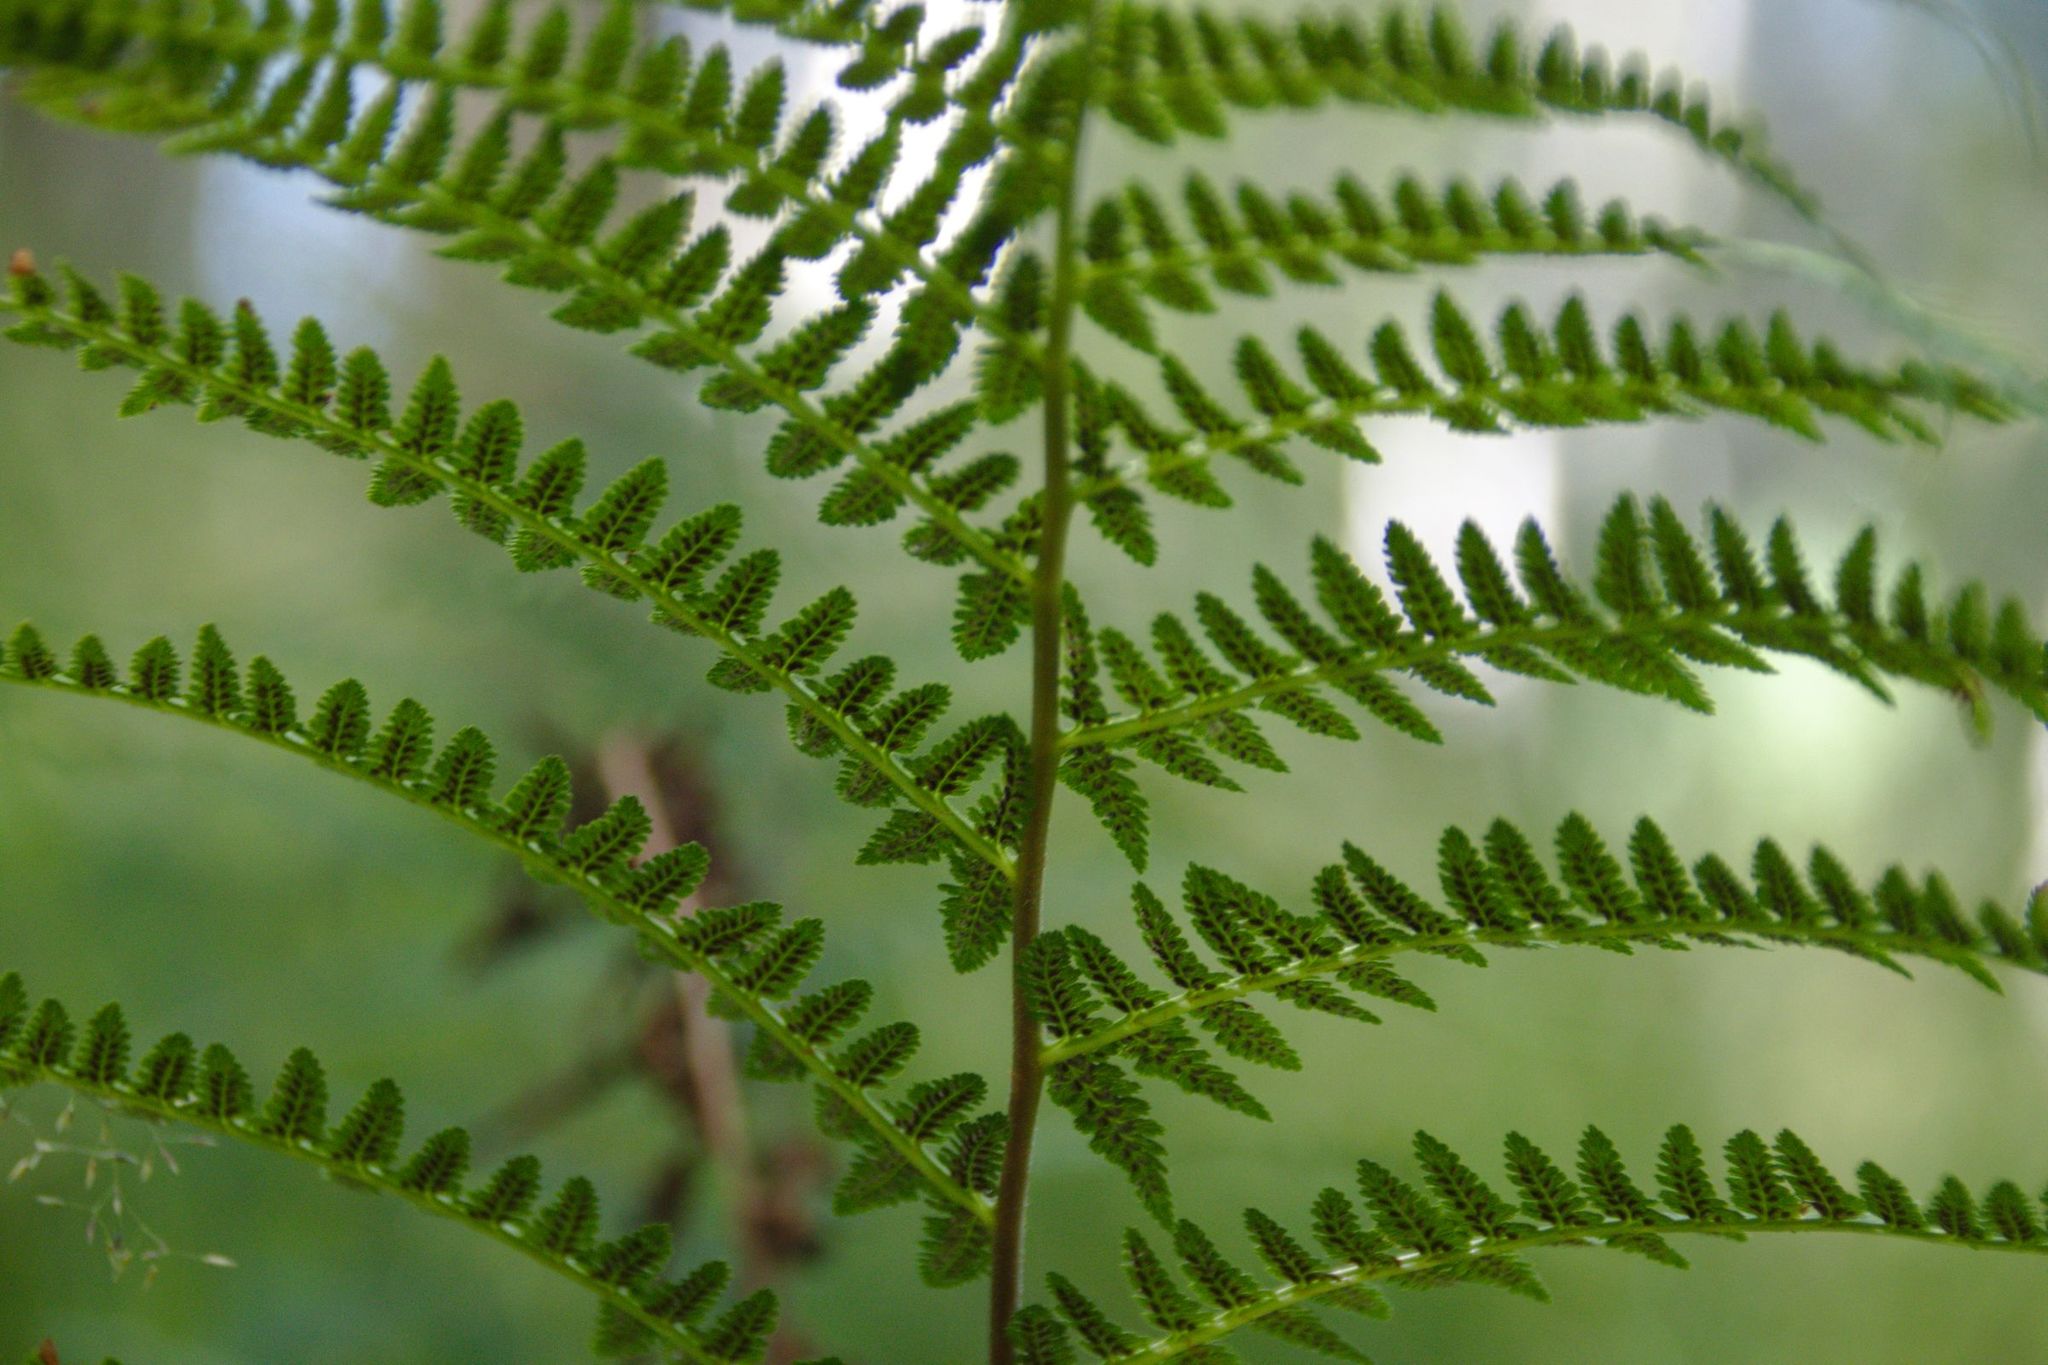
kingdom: Plantae
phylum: Tracheophyta
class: Polypodiopsida
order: Polypodiales
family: Dryopteridaceae
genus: Dryopteris
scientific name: Dryopteris filix-mas
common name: Male fern
